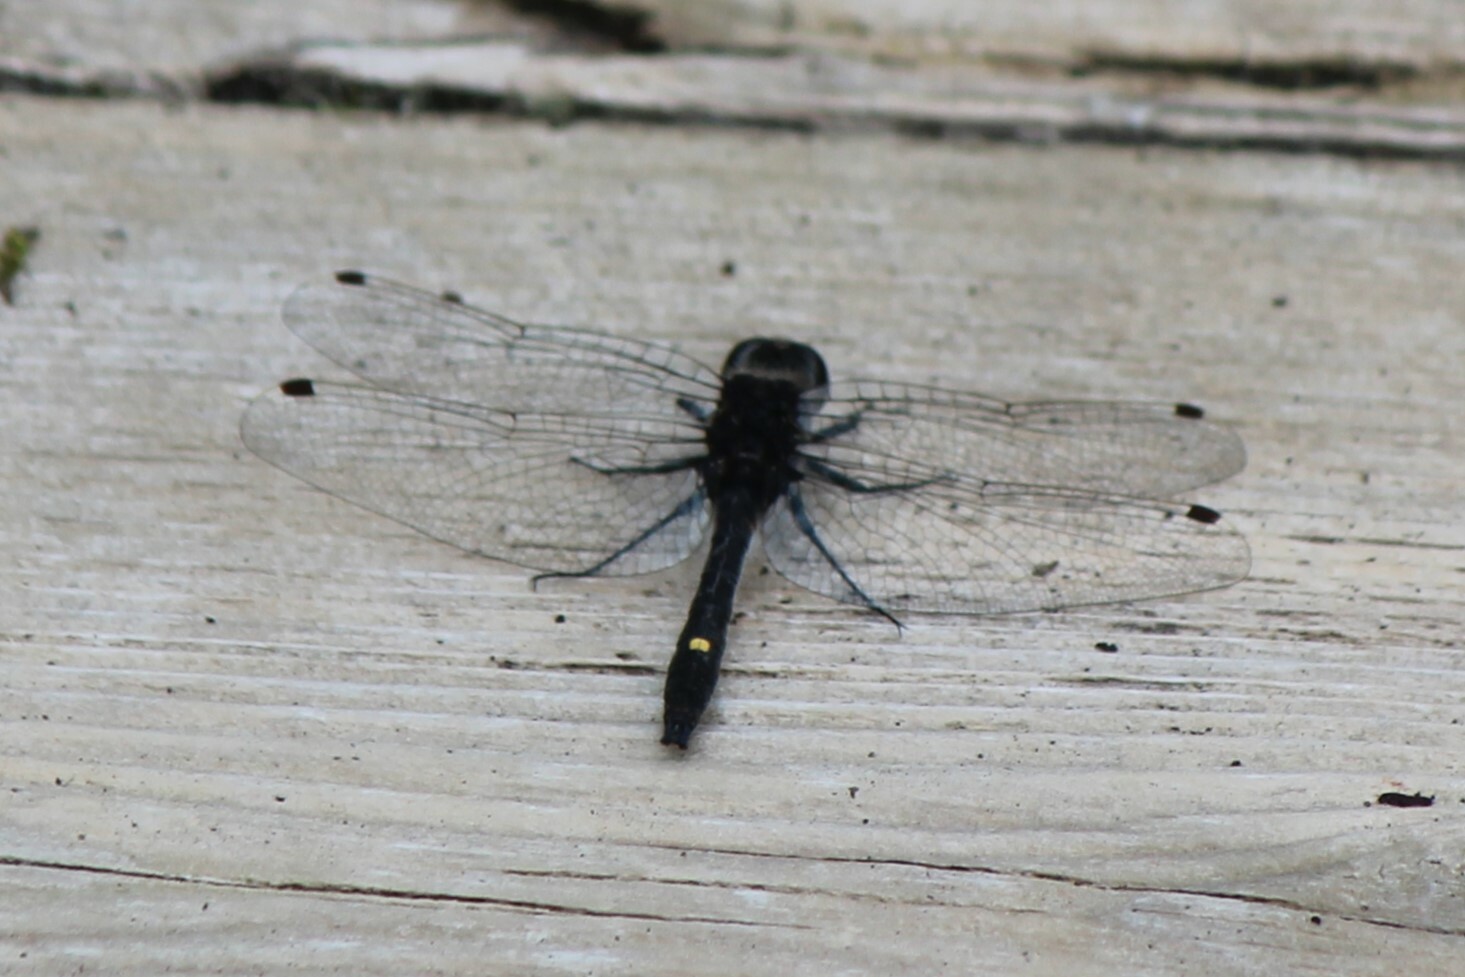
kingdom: Animalia
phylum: Arthropoda
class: Insecta
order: Odonata
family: Libellulidae
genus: Leucorrhinia
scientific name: Leucorrhinia intacta
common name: Dot-tailed whiteface
